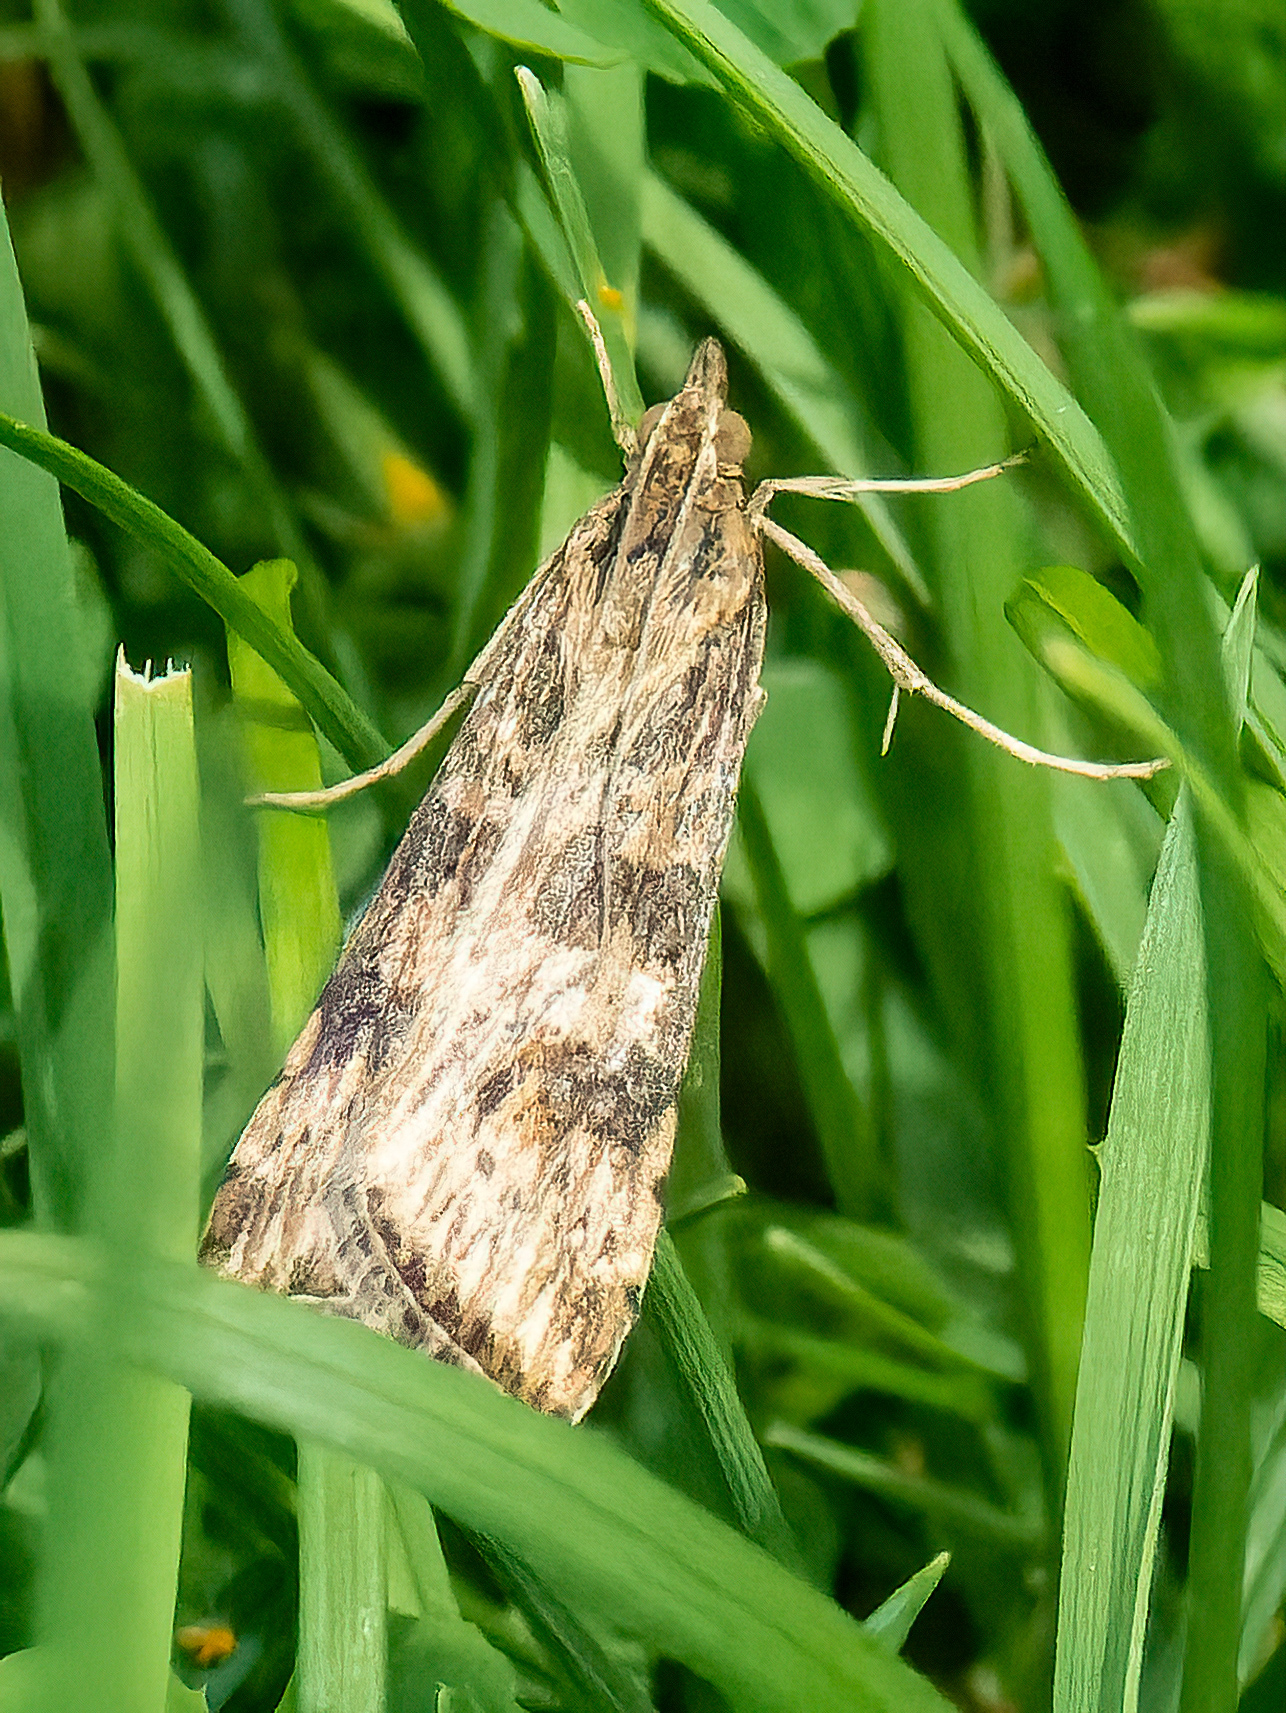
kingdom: Animalia
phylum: Arthropoda
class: Insecta
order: Lepidoptera
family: Crambidae
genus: Nomophila
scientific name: Nomophila nearctica
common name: American rush veneer
